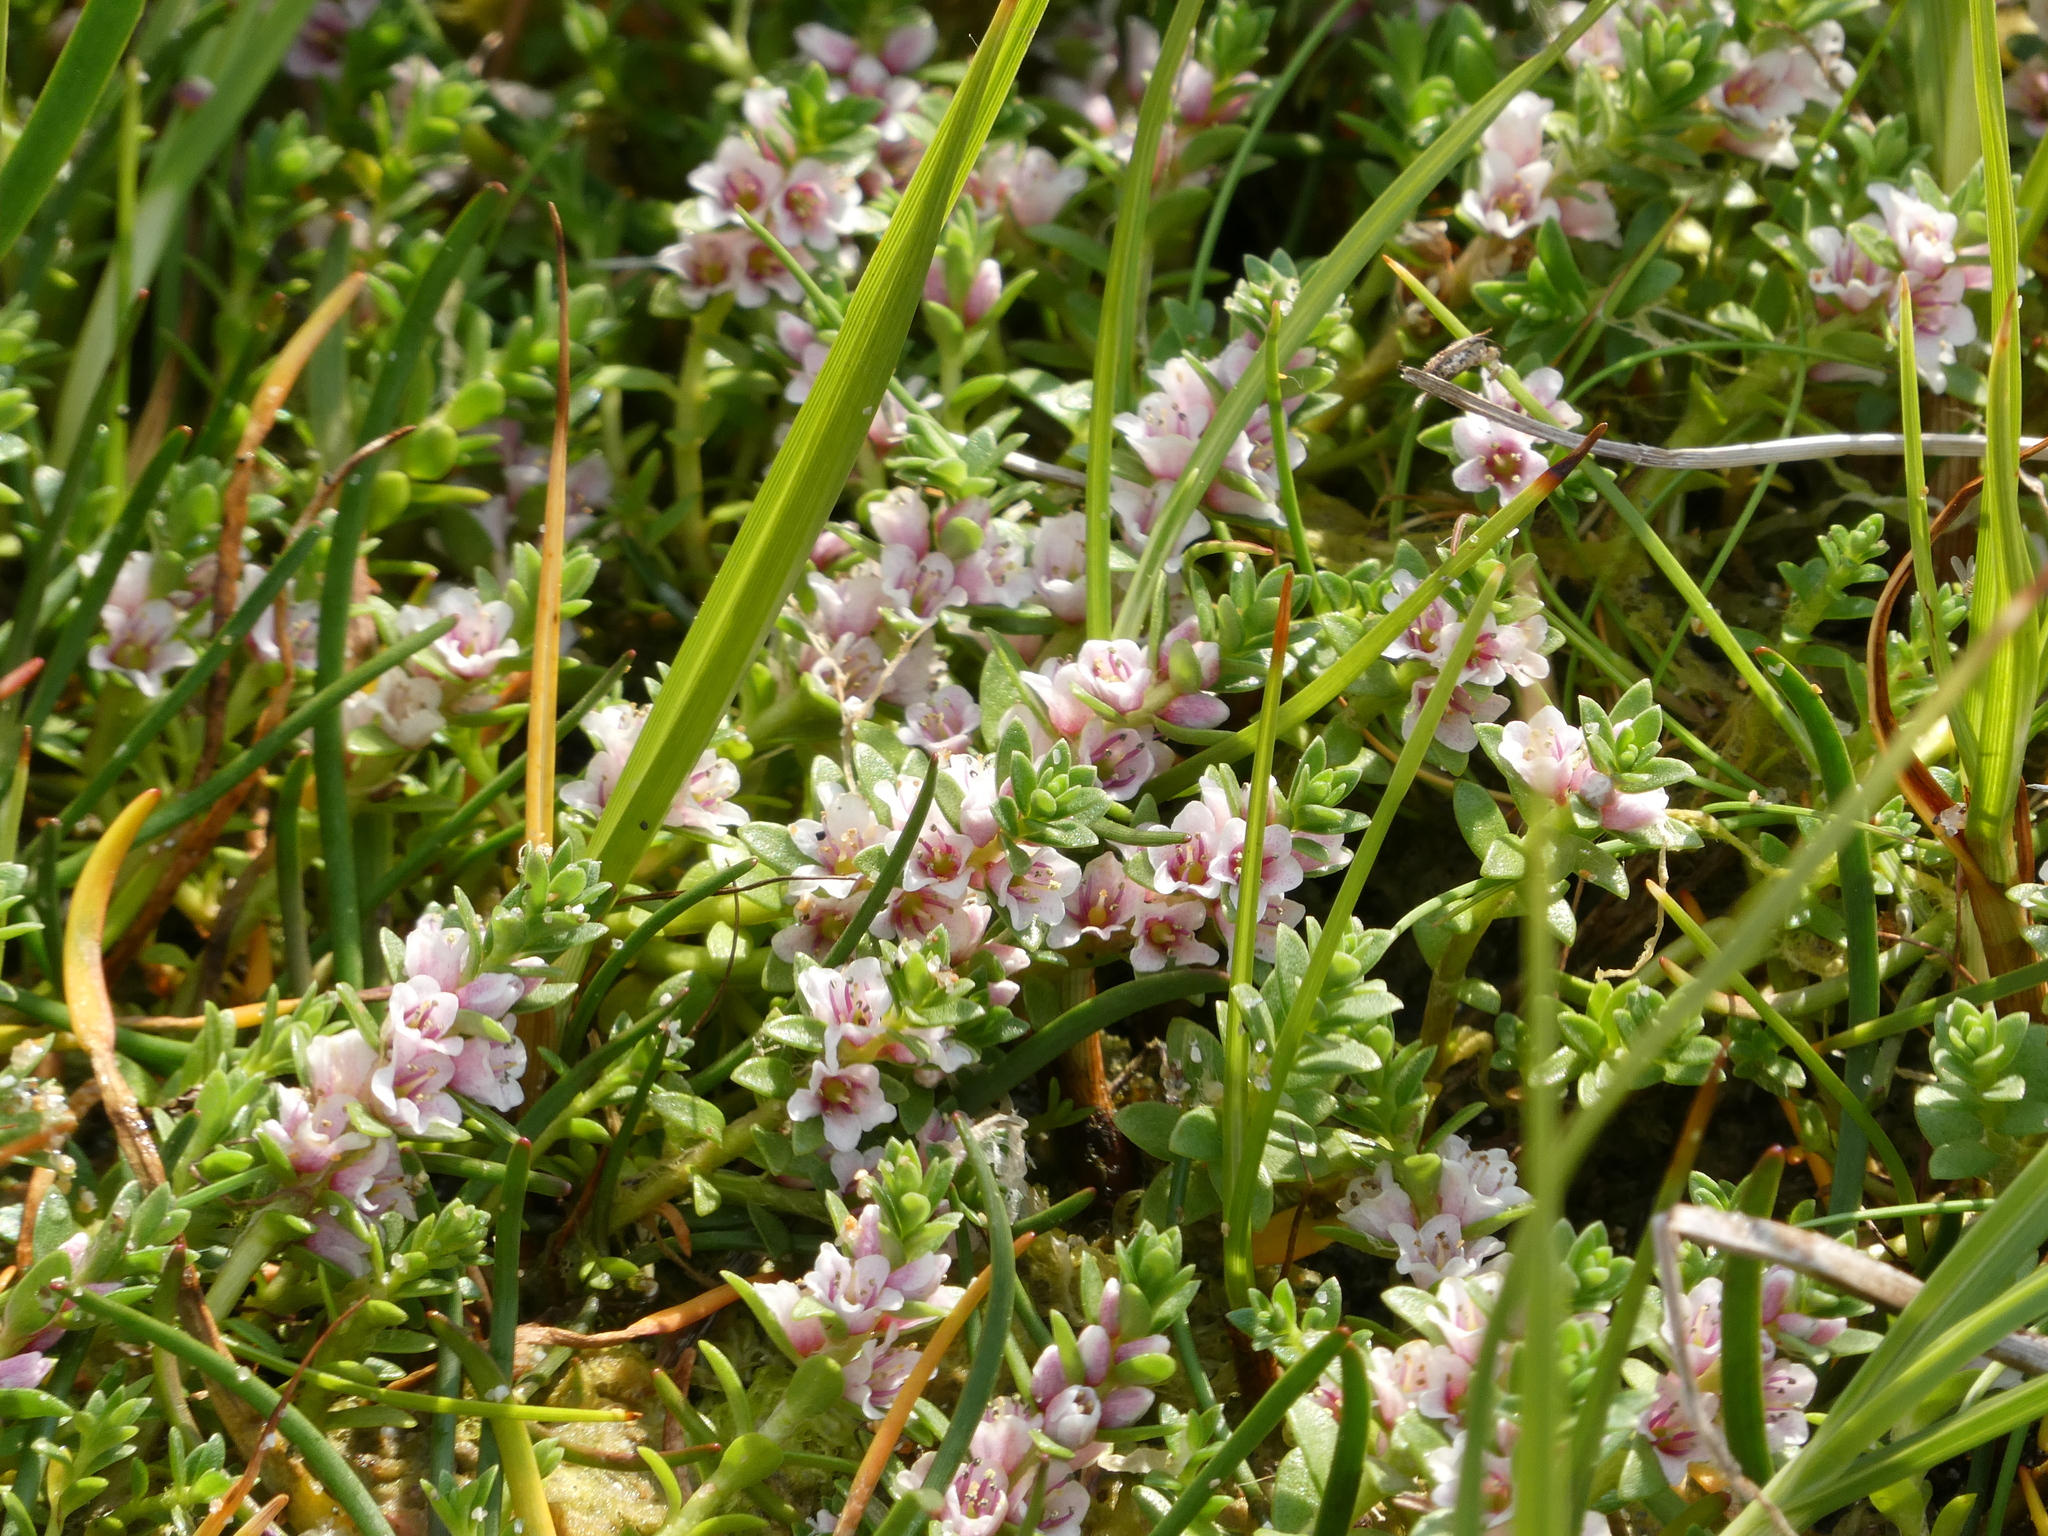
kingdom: Plantae
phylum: Tracheophyta
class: Magnoliopsida
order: Ericales
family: Primulaceae
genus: Lysimachia
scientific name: Lysimachia maritima
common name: Sea milkwort
